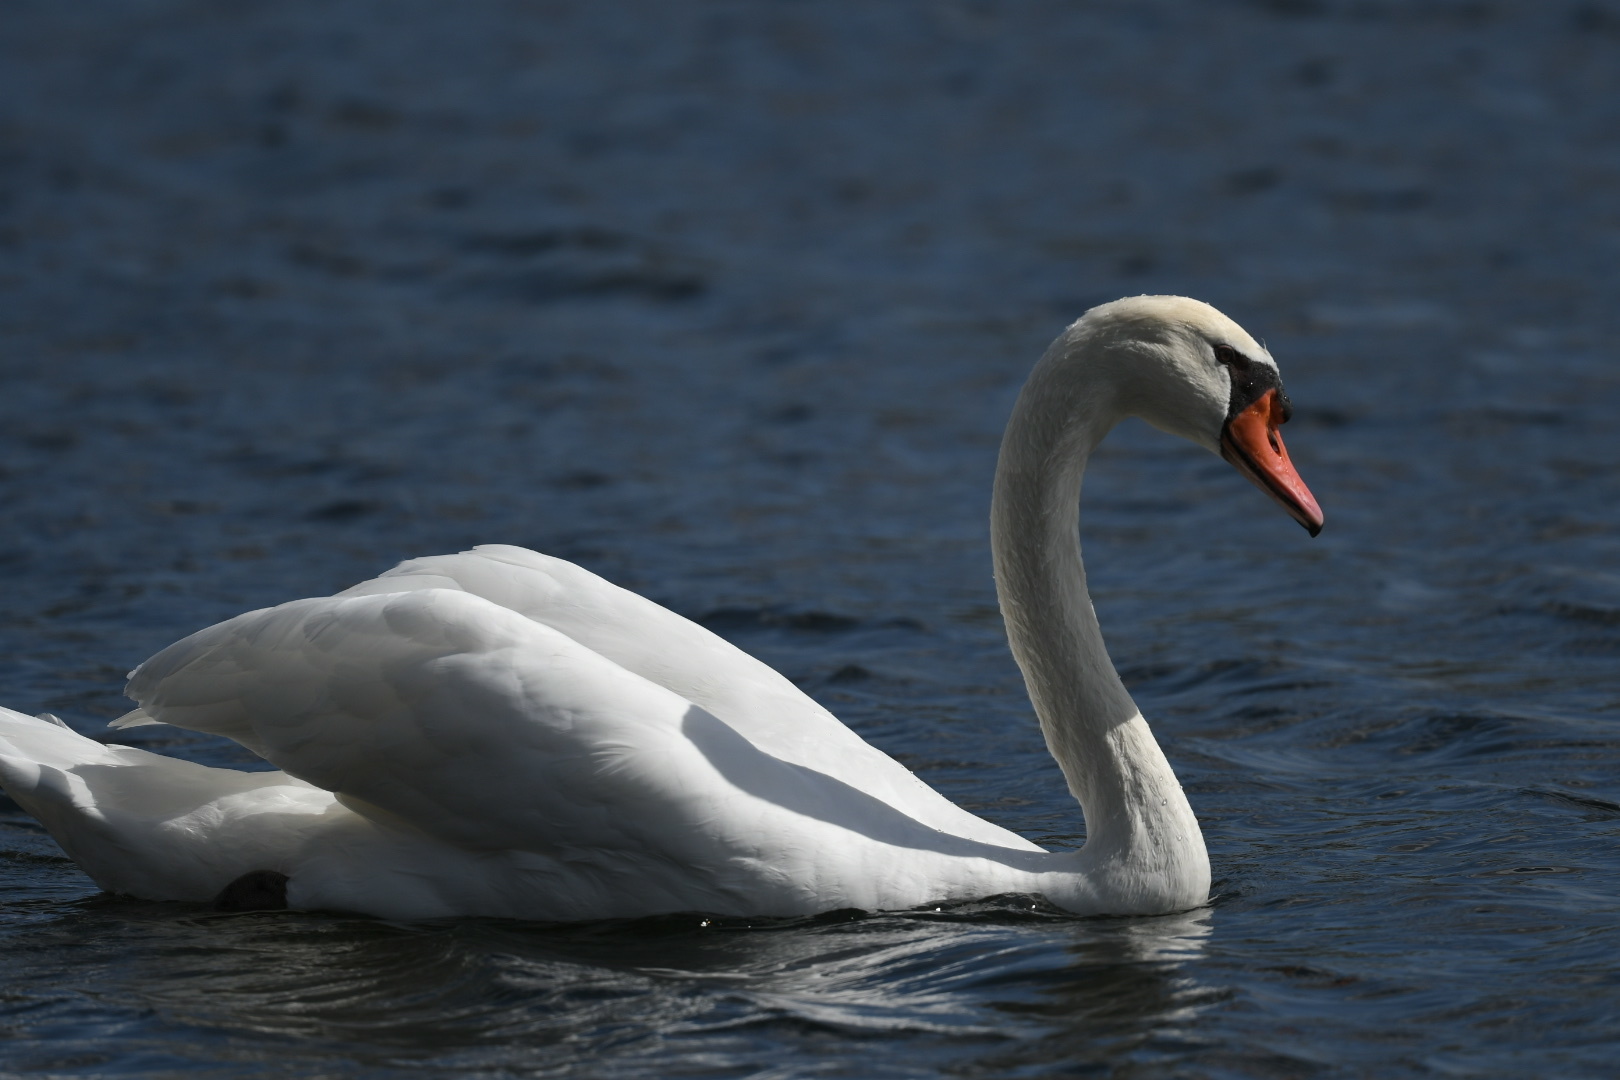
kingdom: Animalia
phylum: Chordata
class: Aves
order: Anseriformes
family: Anatidae
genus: Cygnus
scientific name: Cygnus olor
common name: Mute swan
